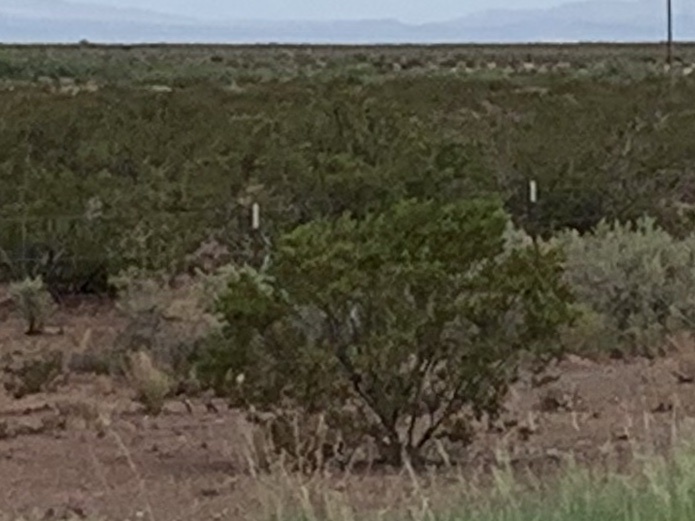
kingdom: Plantae
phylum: Tracheophyta
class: Magnoliopsida
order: Zygophyllales
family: Zygophyllaceae
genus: Larrea
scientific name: Larrea tridentata
